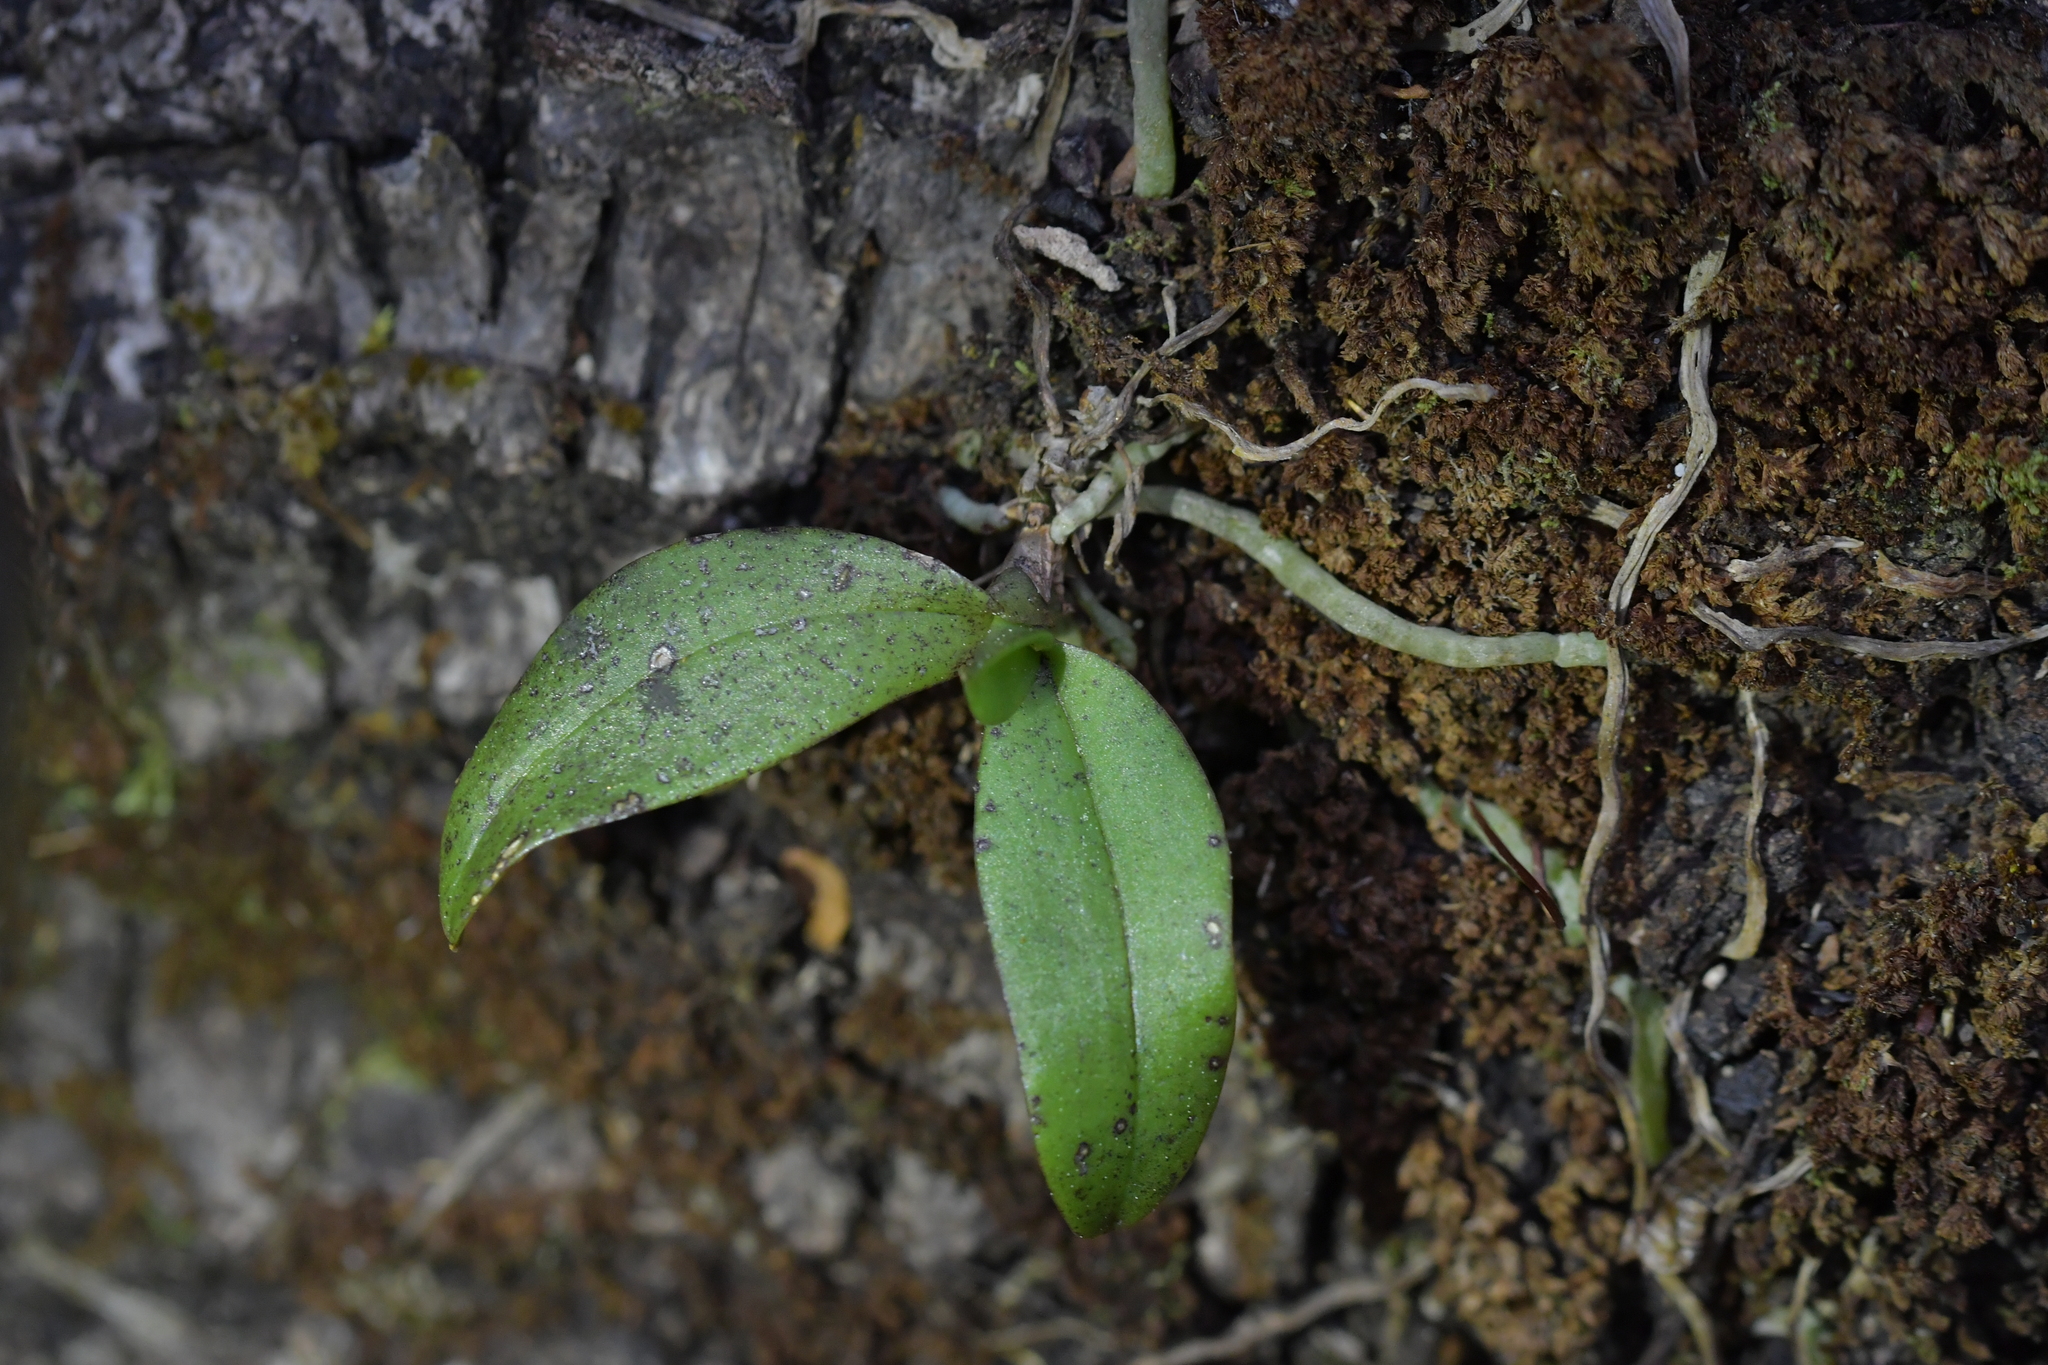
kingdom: Plantae
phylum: Tracheophyta
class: Liliopsida
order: Asparagales
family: Orchidaceae
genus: Drymoanthus
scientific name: Drymoanthus adversus
